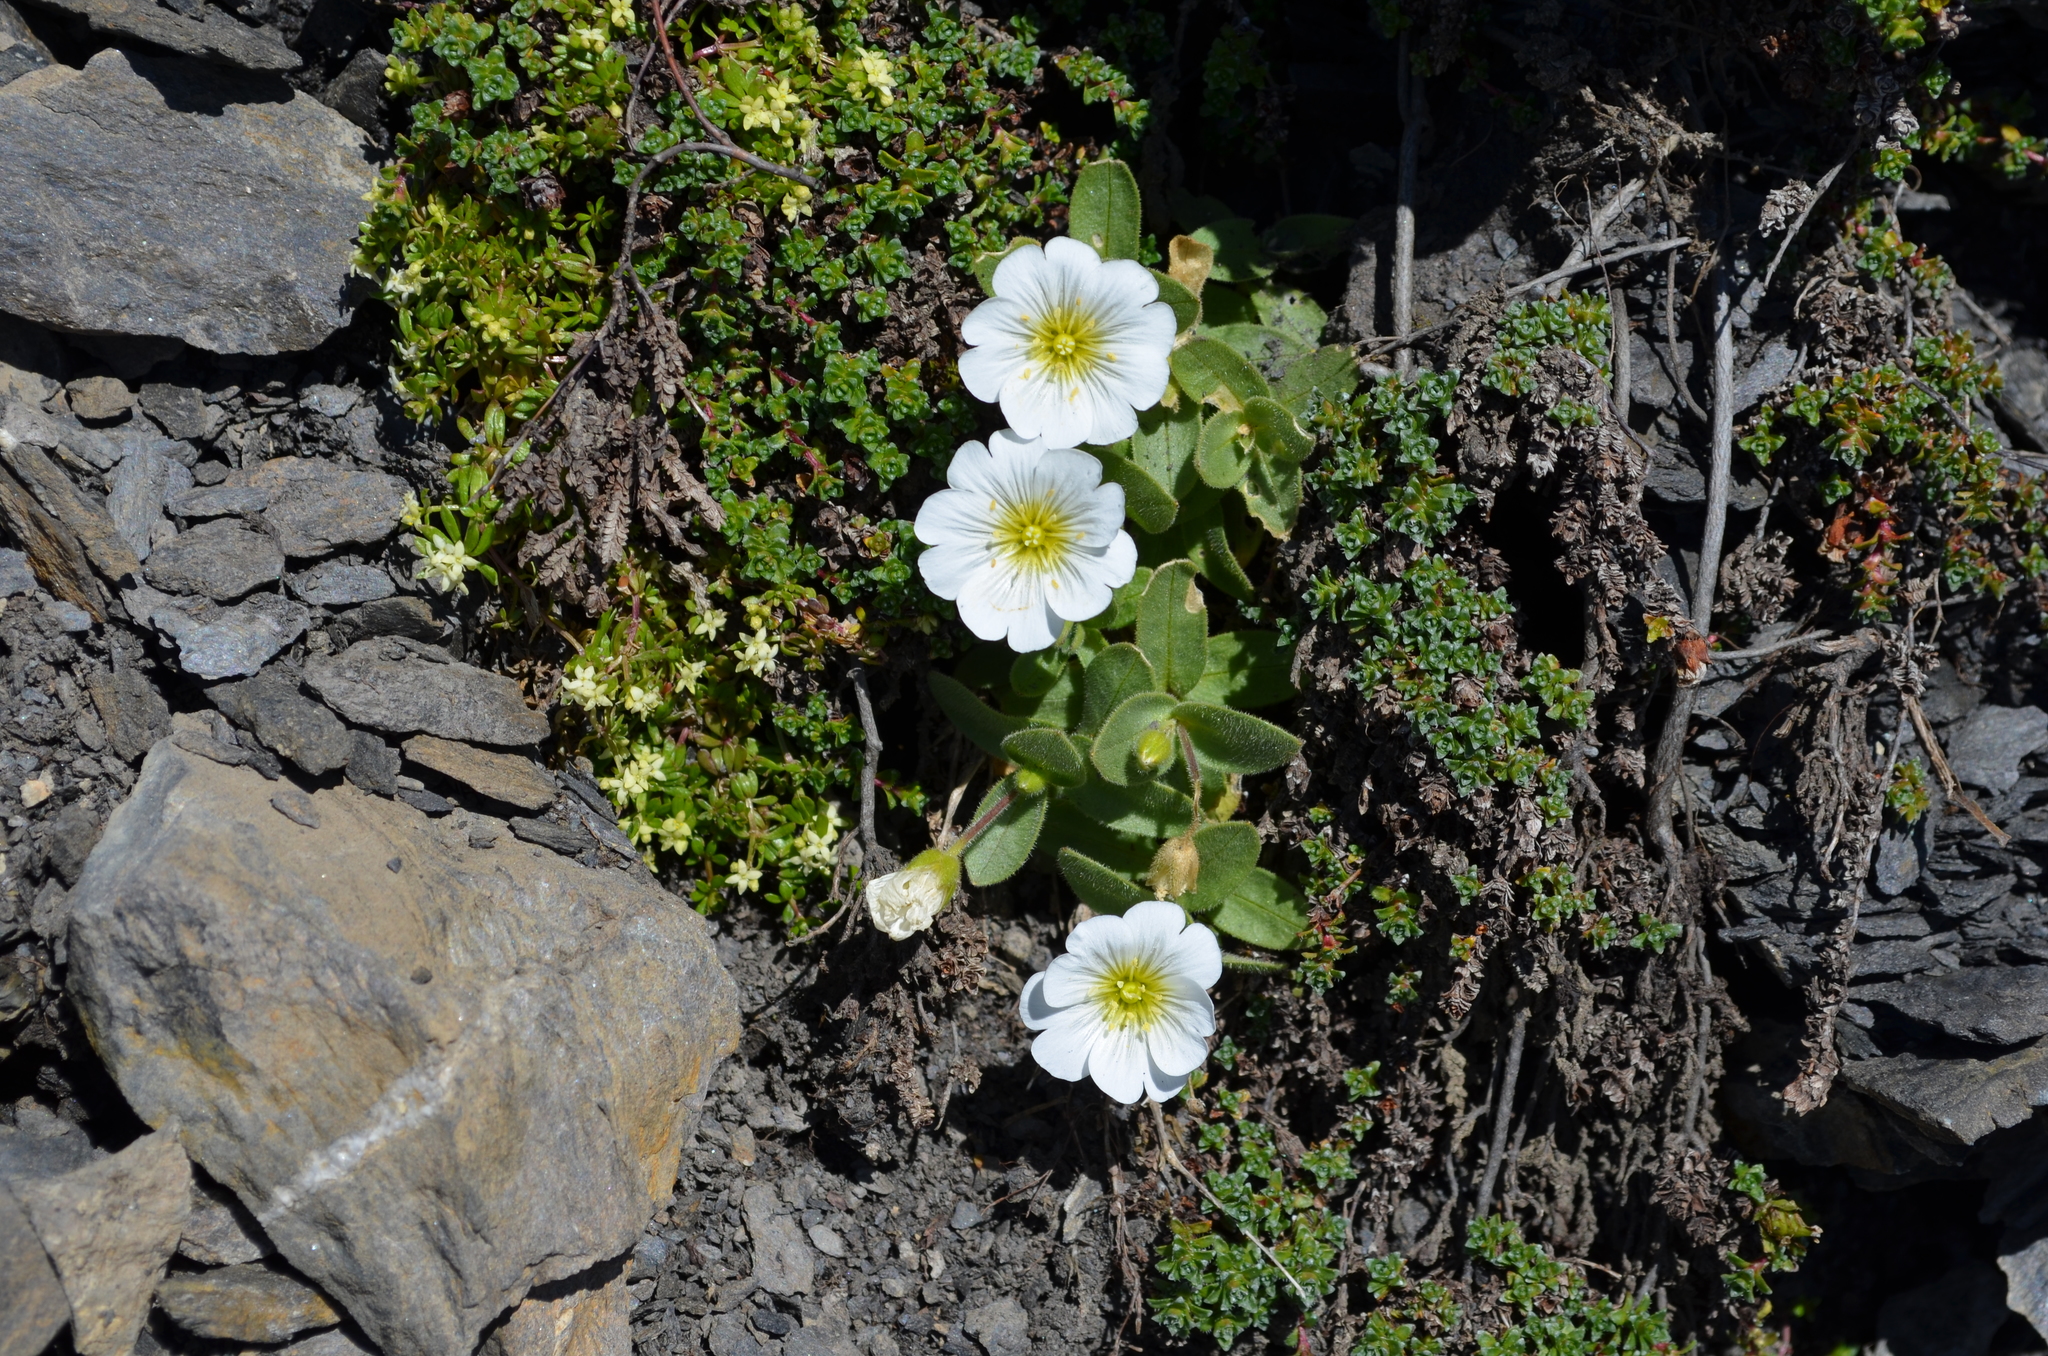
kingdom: Plantae
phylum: Tracheophyta
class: Magnoliopsida
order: Caryophyllales
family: Caryophyllaceae
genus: Cerastium
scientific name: Cerastium latifolium
